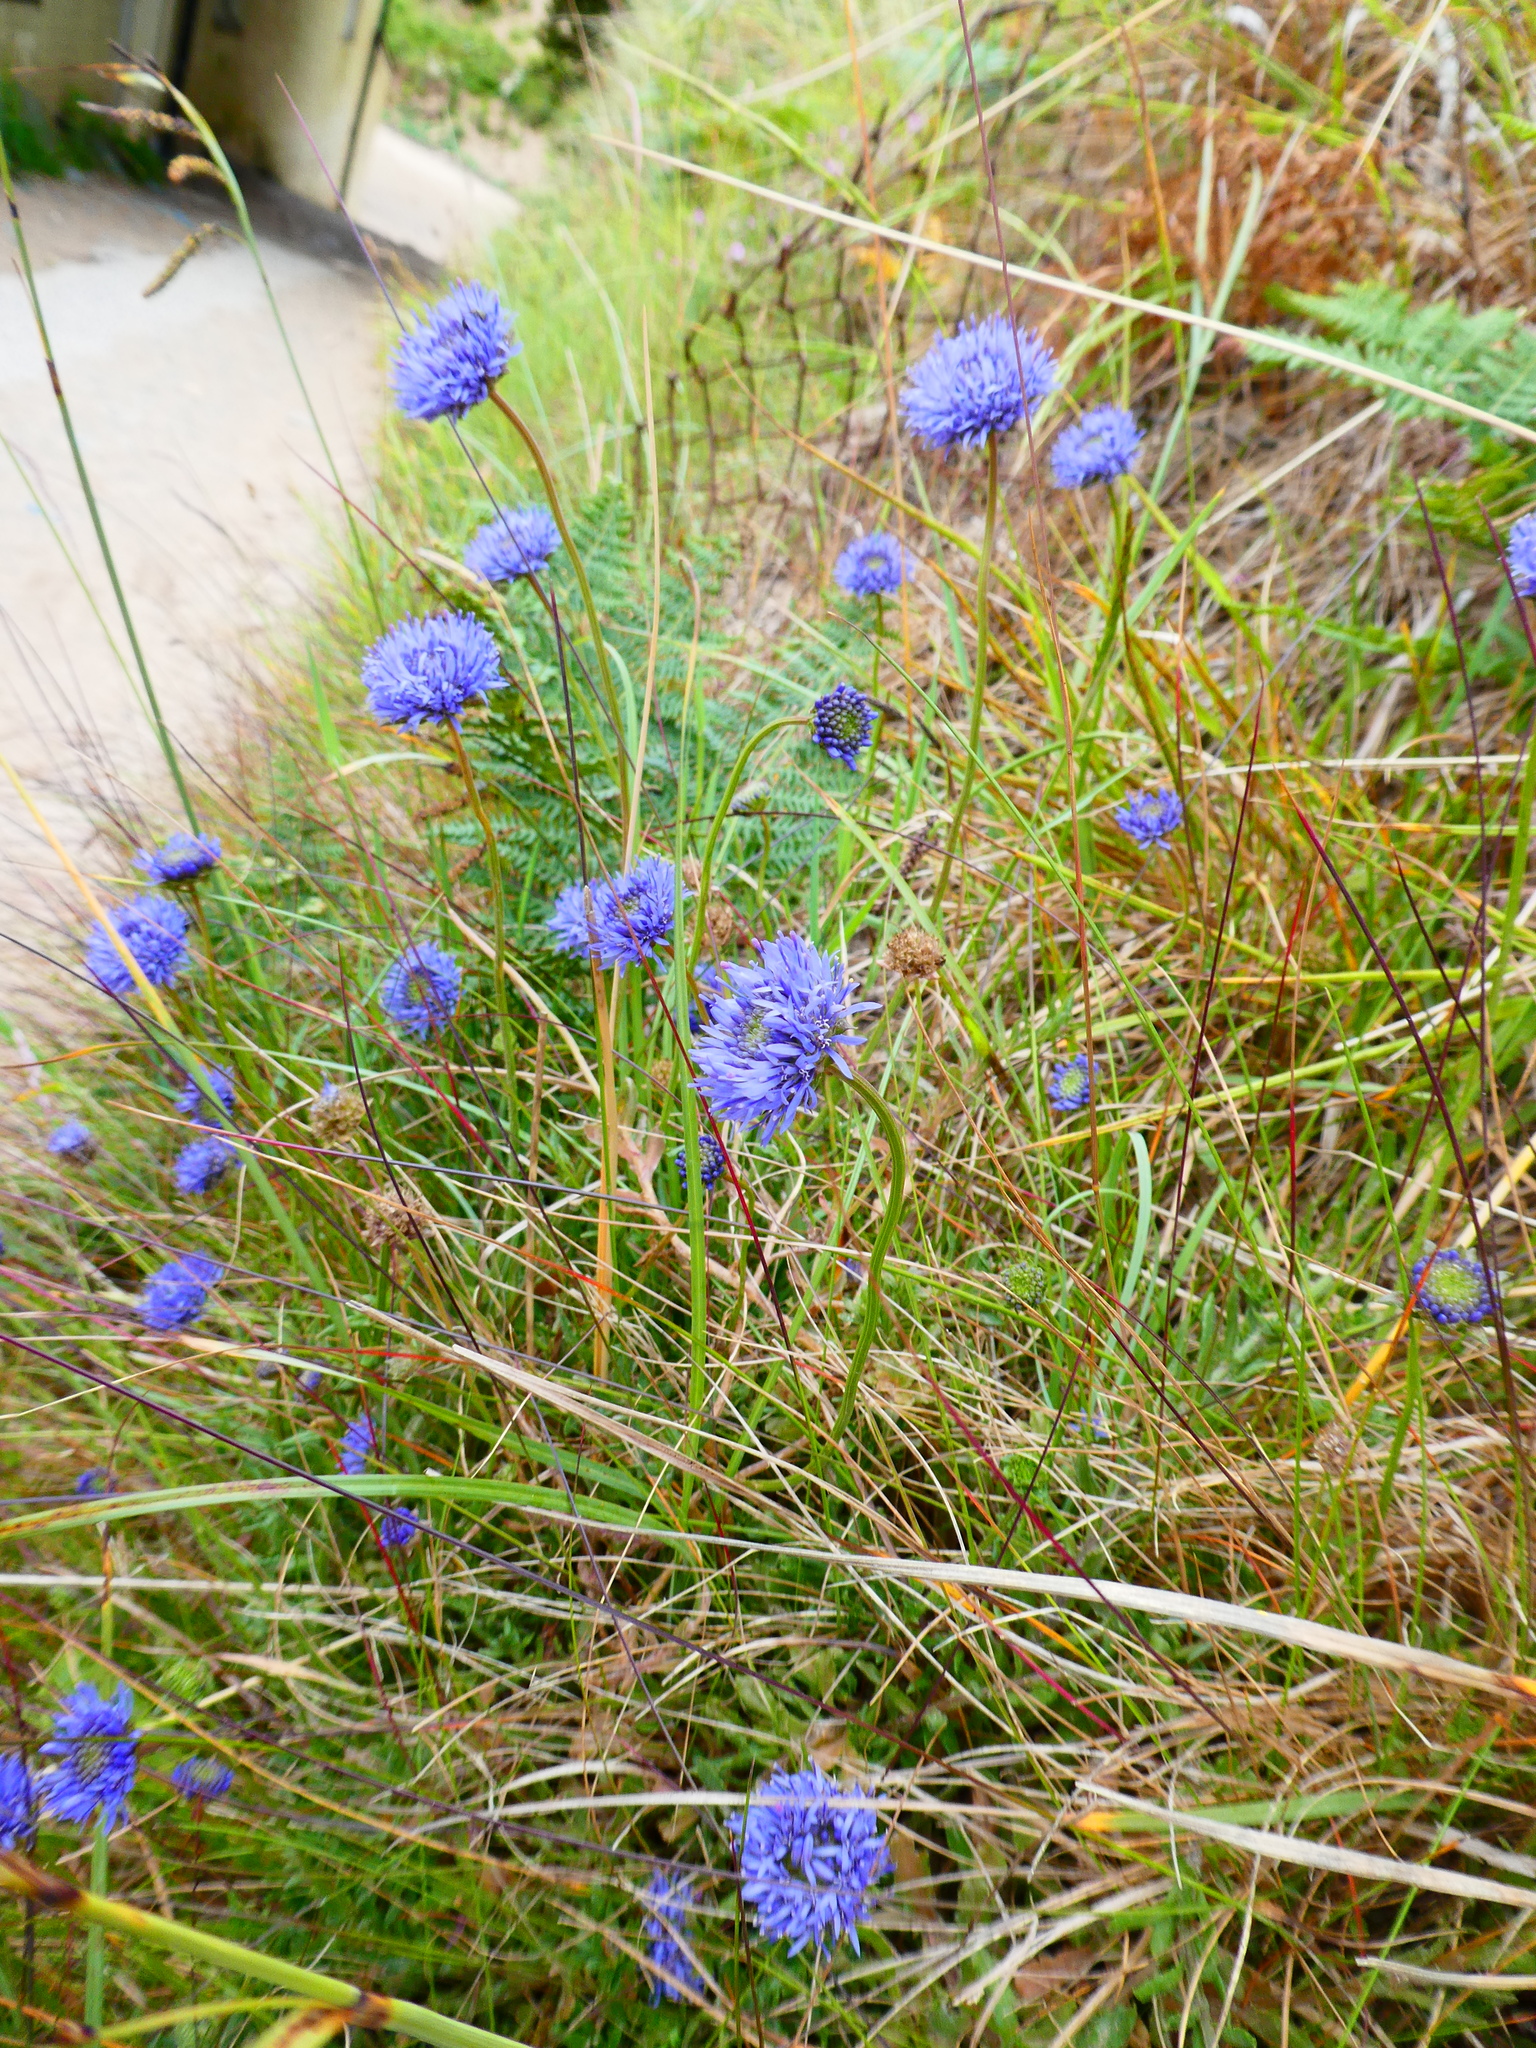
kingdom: Plantae
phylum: Tracheophyta
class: Magnoliopsida
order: Asterales
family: Campanulaceae
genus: Jasione
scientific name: Jasione montana
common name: Sheep's-bit
